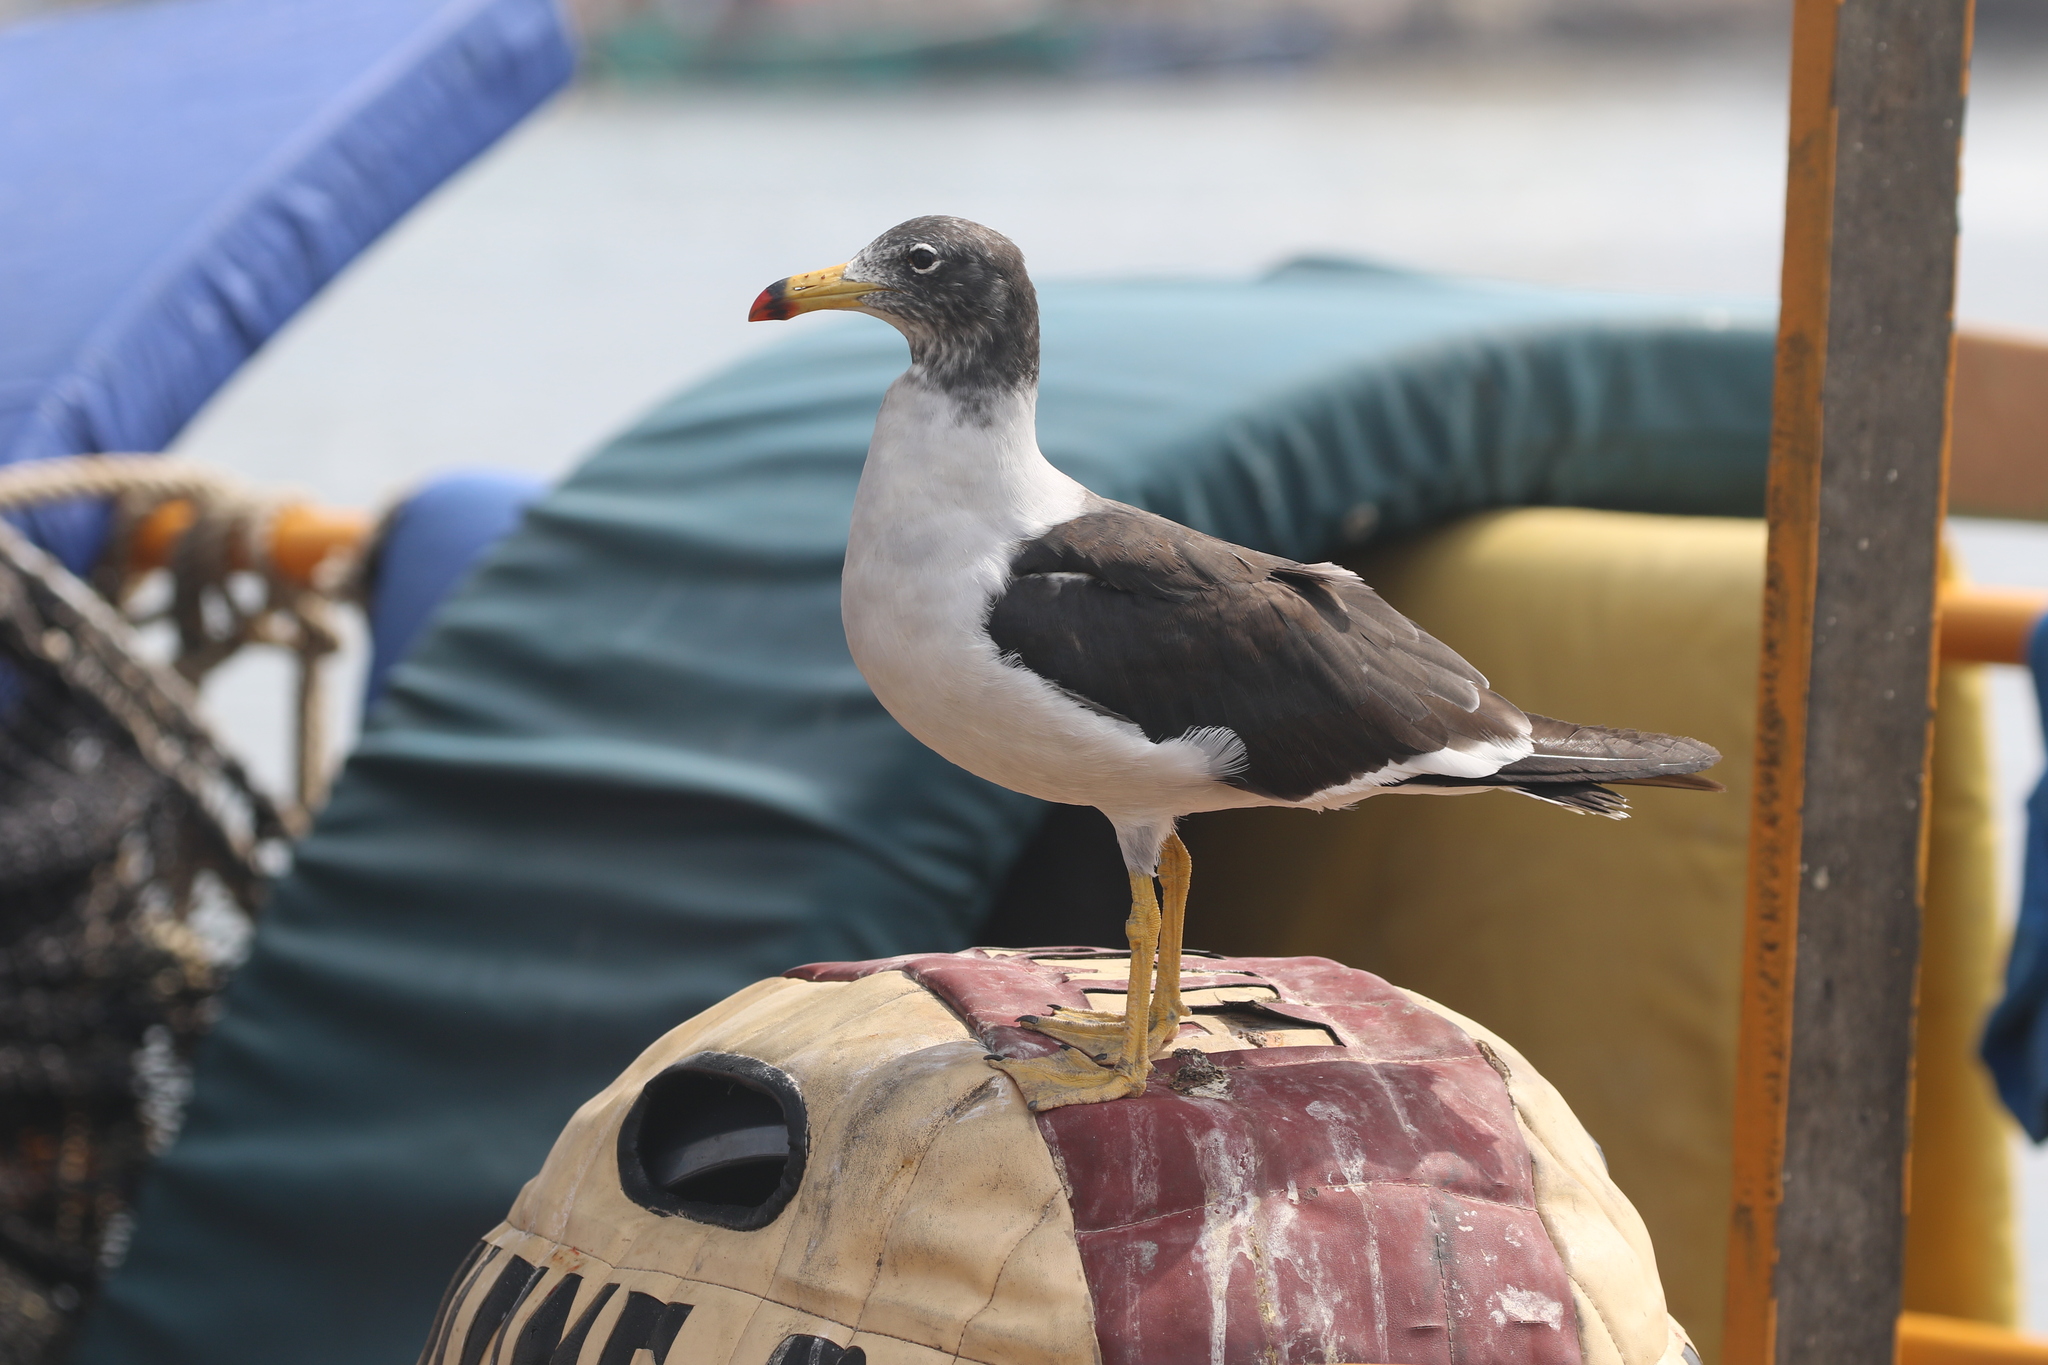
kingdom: Animalia
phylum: Chordata
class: Aves
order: Charadriiformes
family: Laridae
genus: Larus
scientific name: Larus belcheri
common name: Belcher's gull
